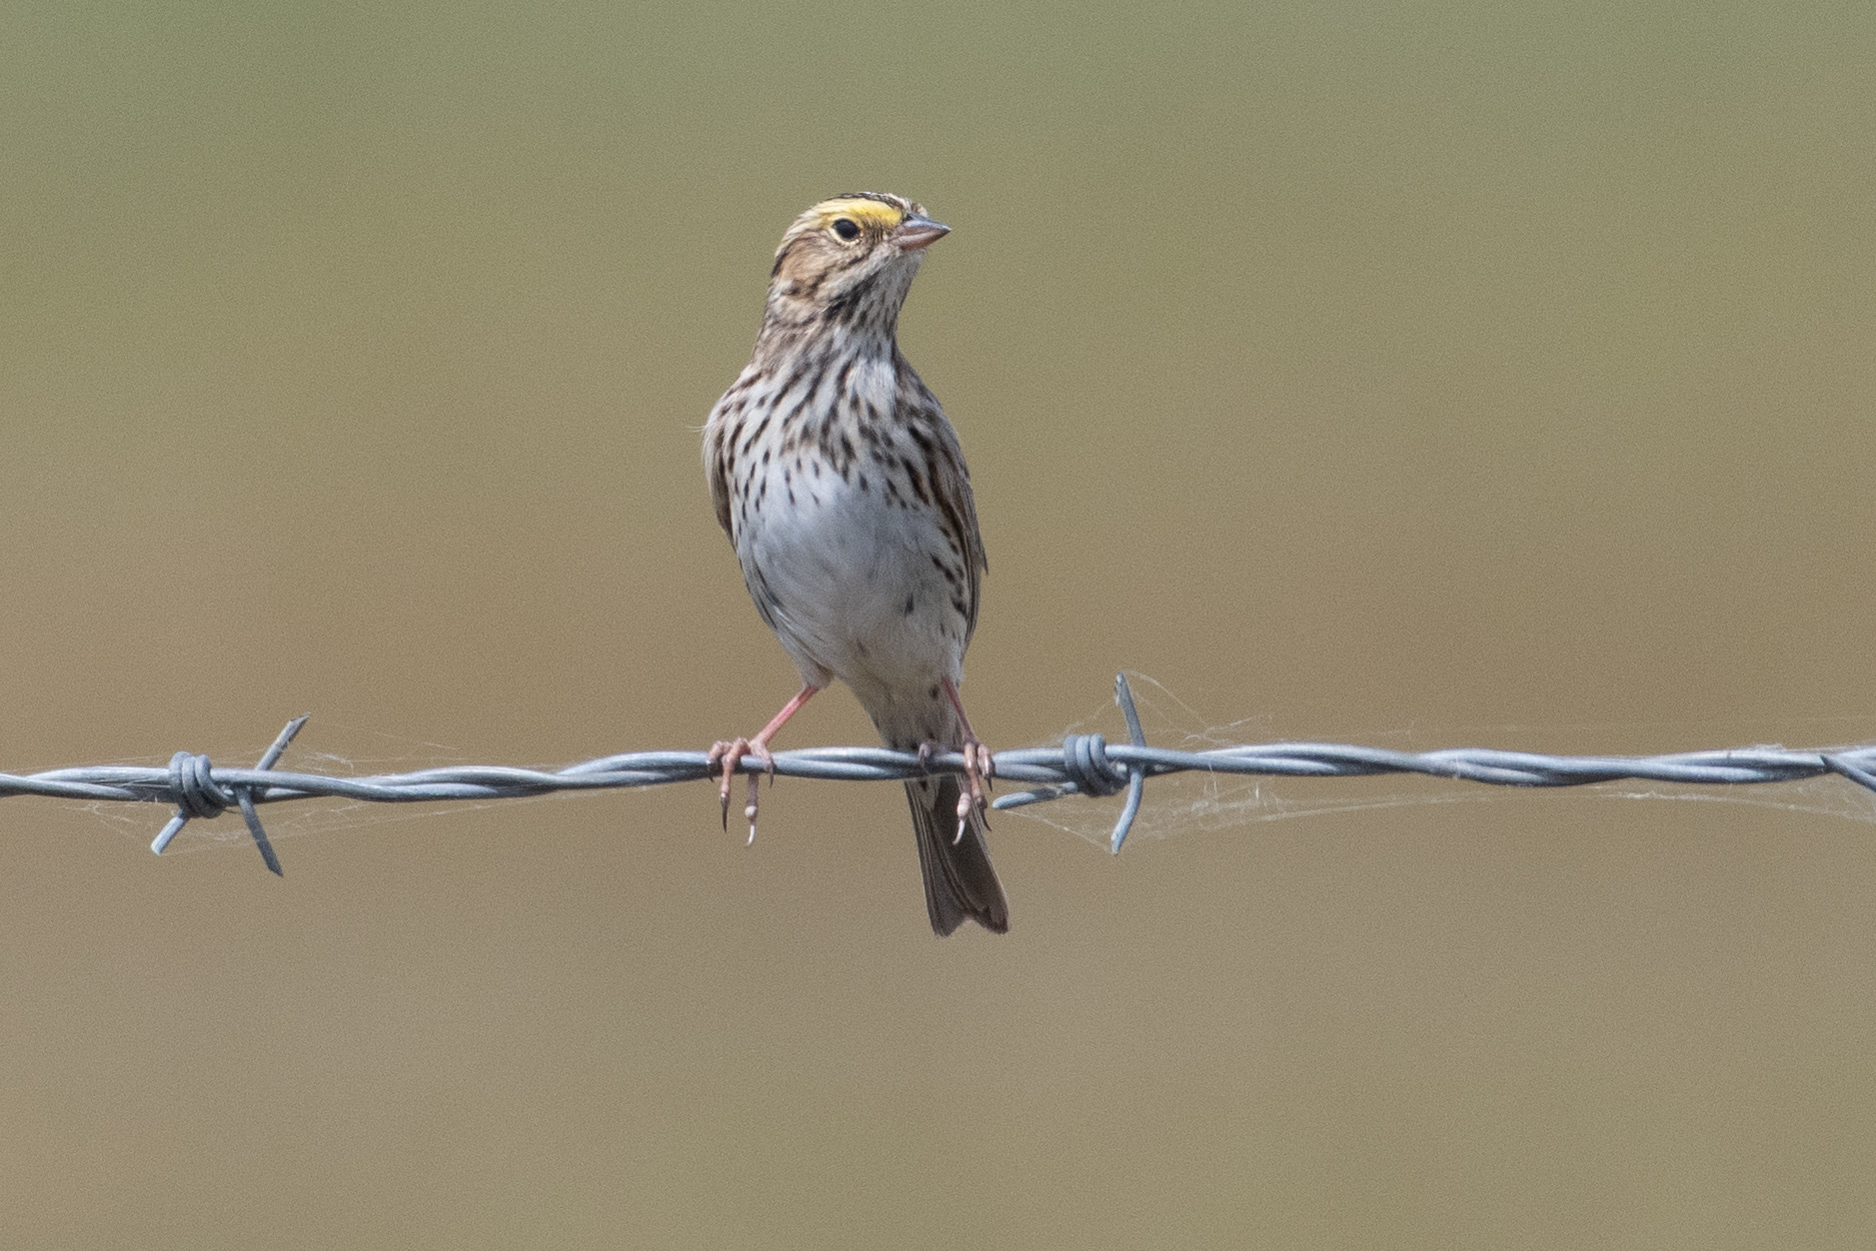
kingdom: Animalia
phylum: Chordata
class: Aves
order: Passeriformes
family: Passerellidae
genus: Passerculus
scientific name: Passerculus sandwichensis
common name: Savannah sparrow
